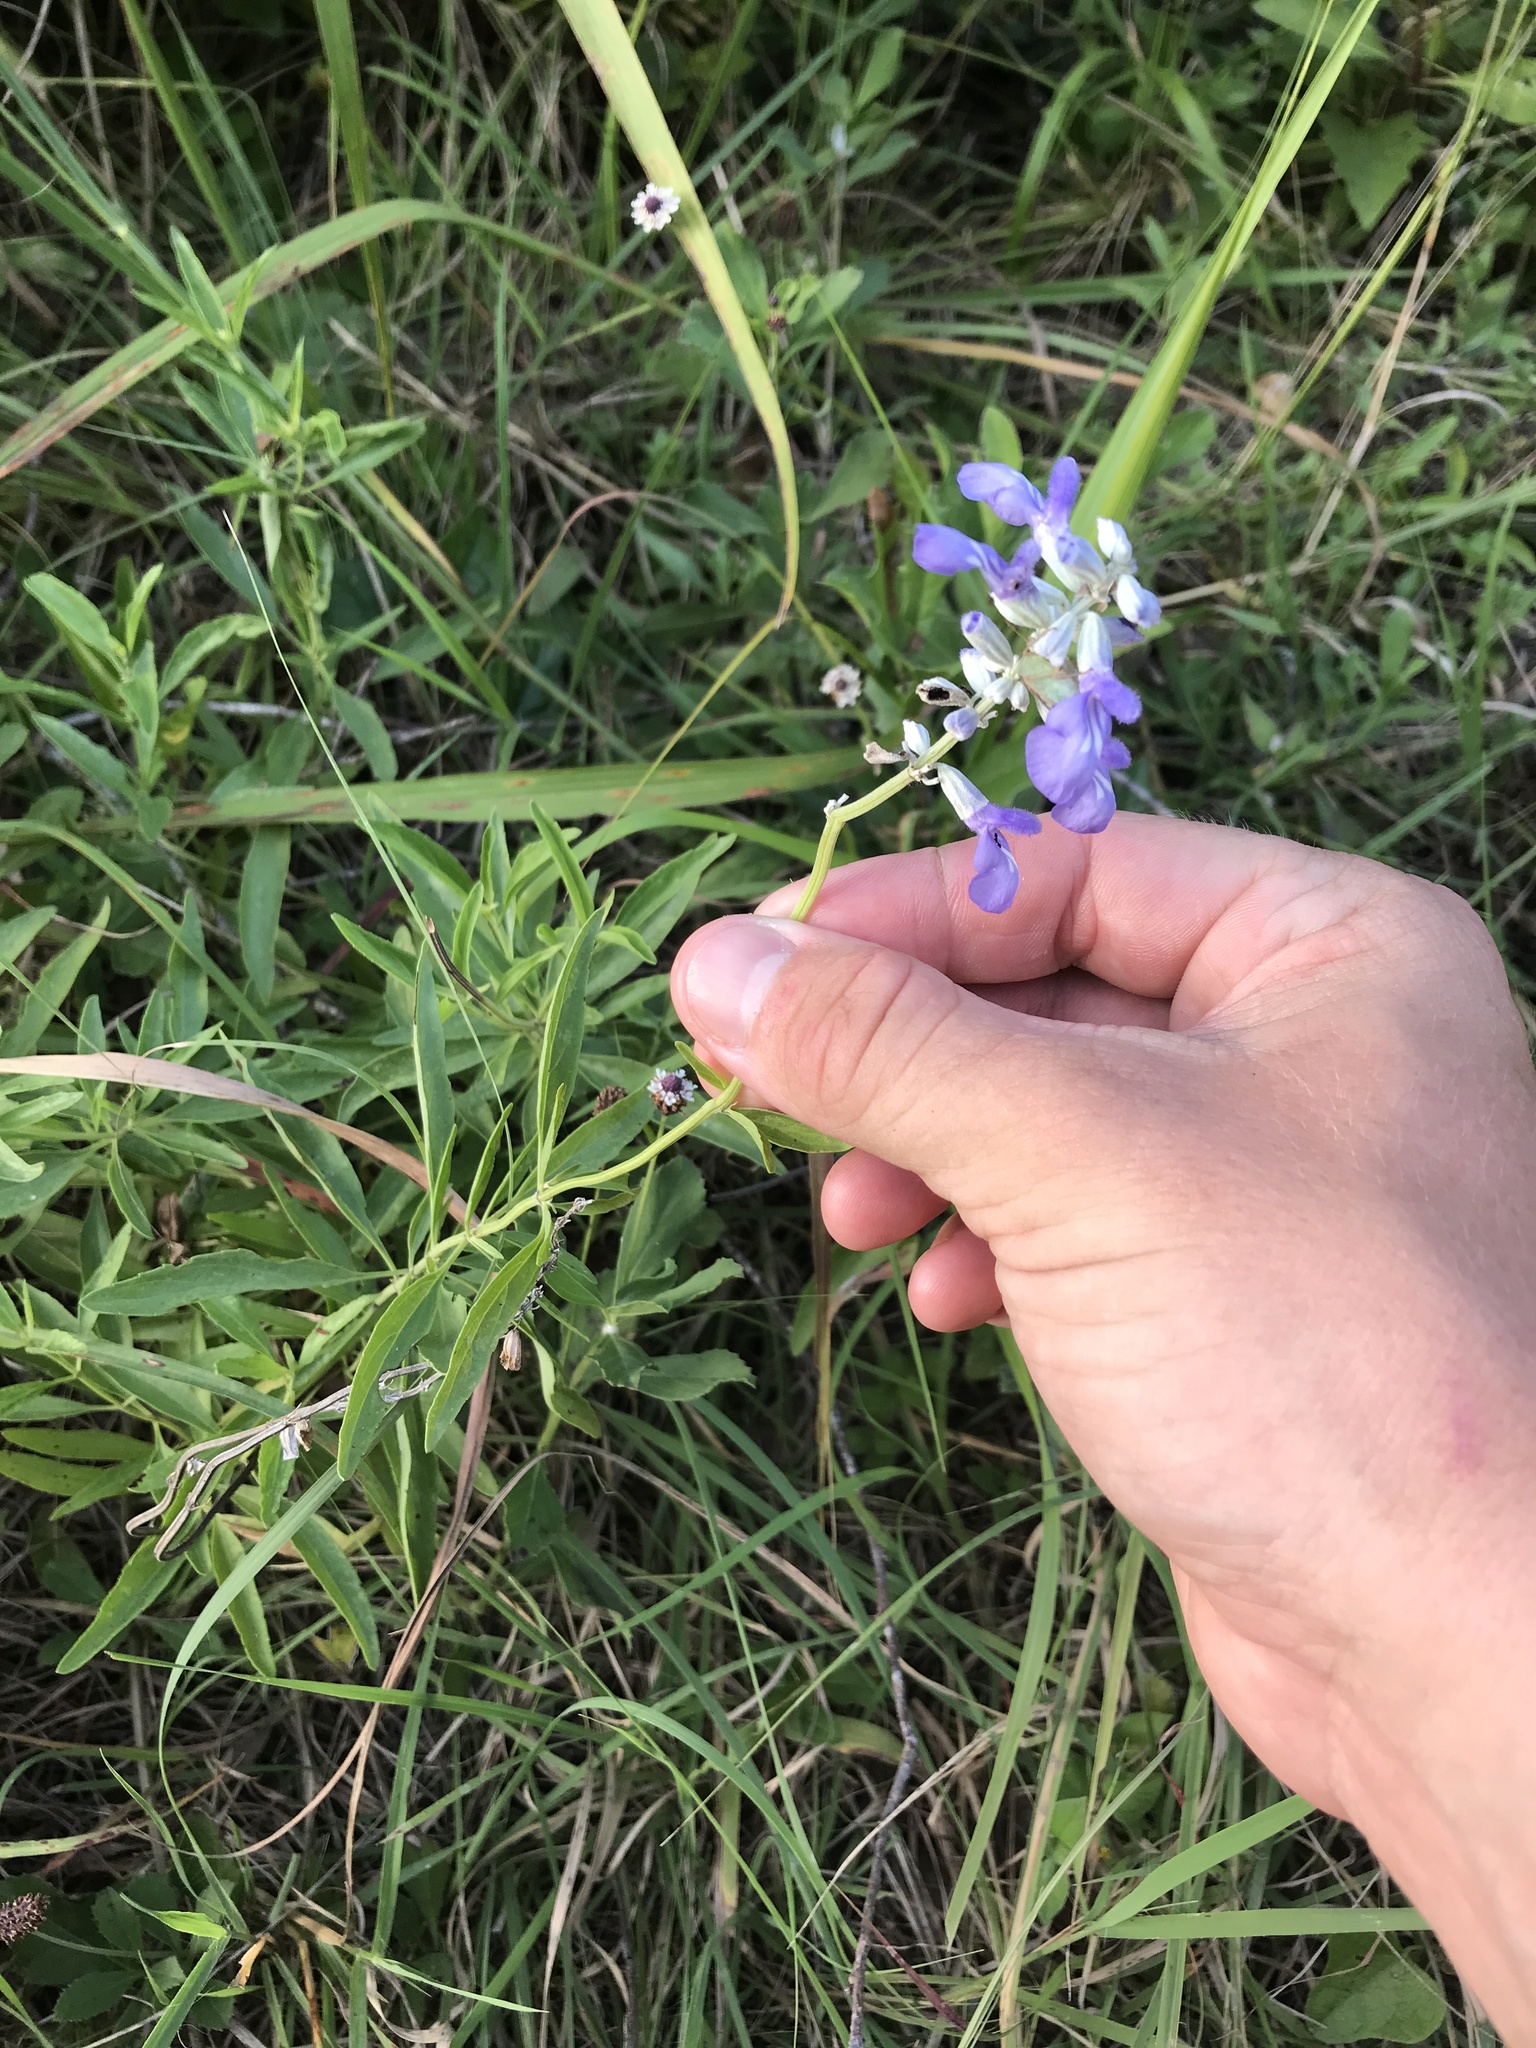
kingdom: Plantae
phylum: Tracheophyta
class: Magnoliopsida
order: Lamiales
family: Lamiaceae
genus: Salvia
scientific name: Salvia farinacea
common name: Mealy sage
